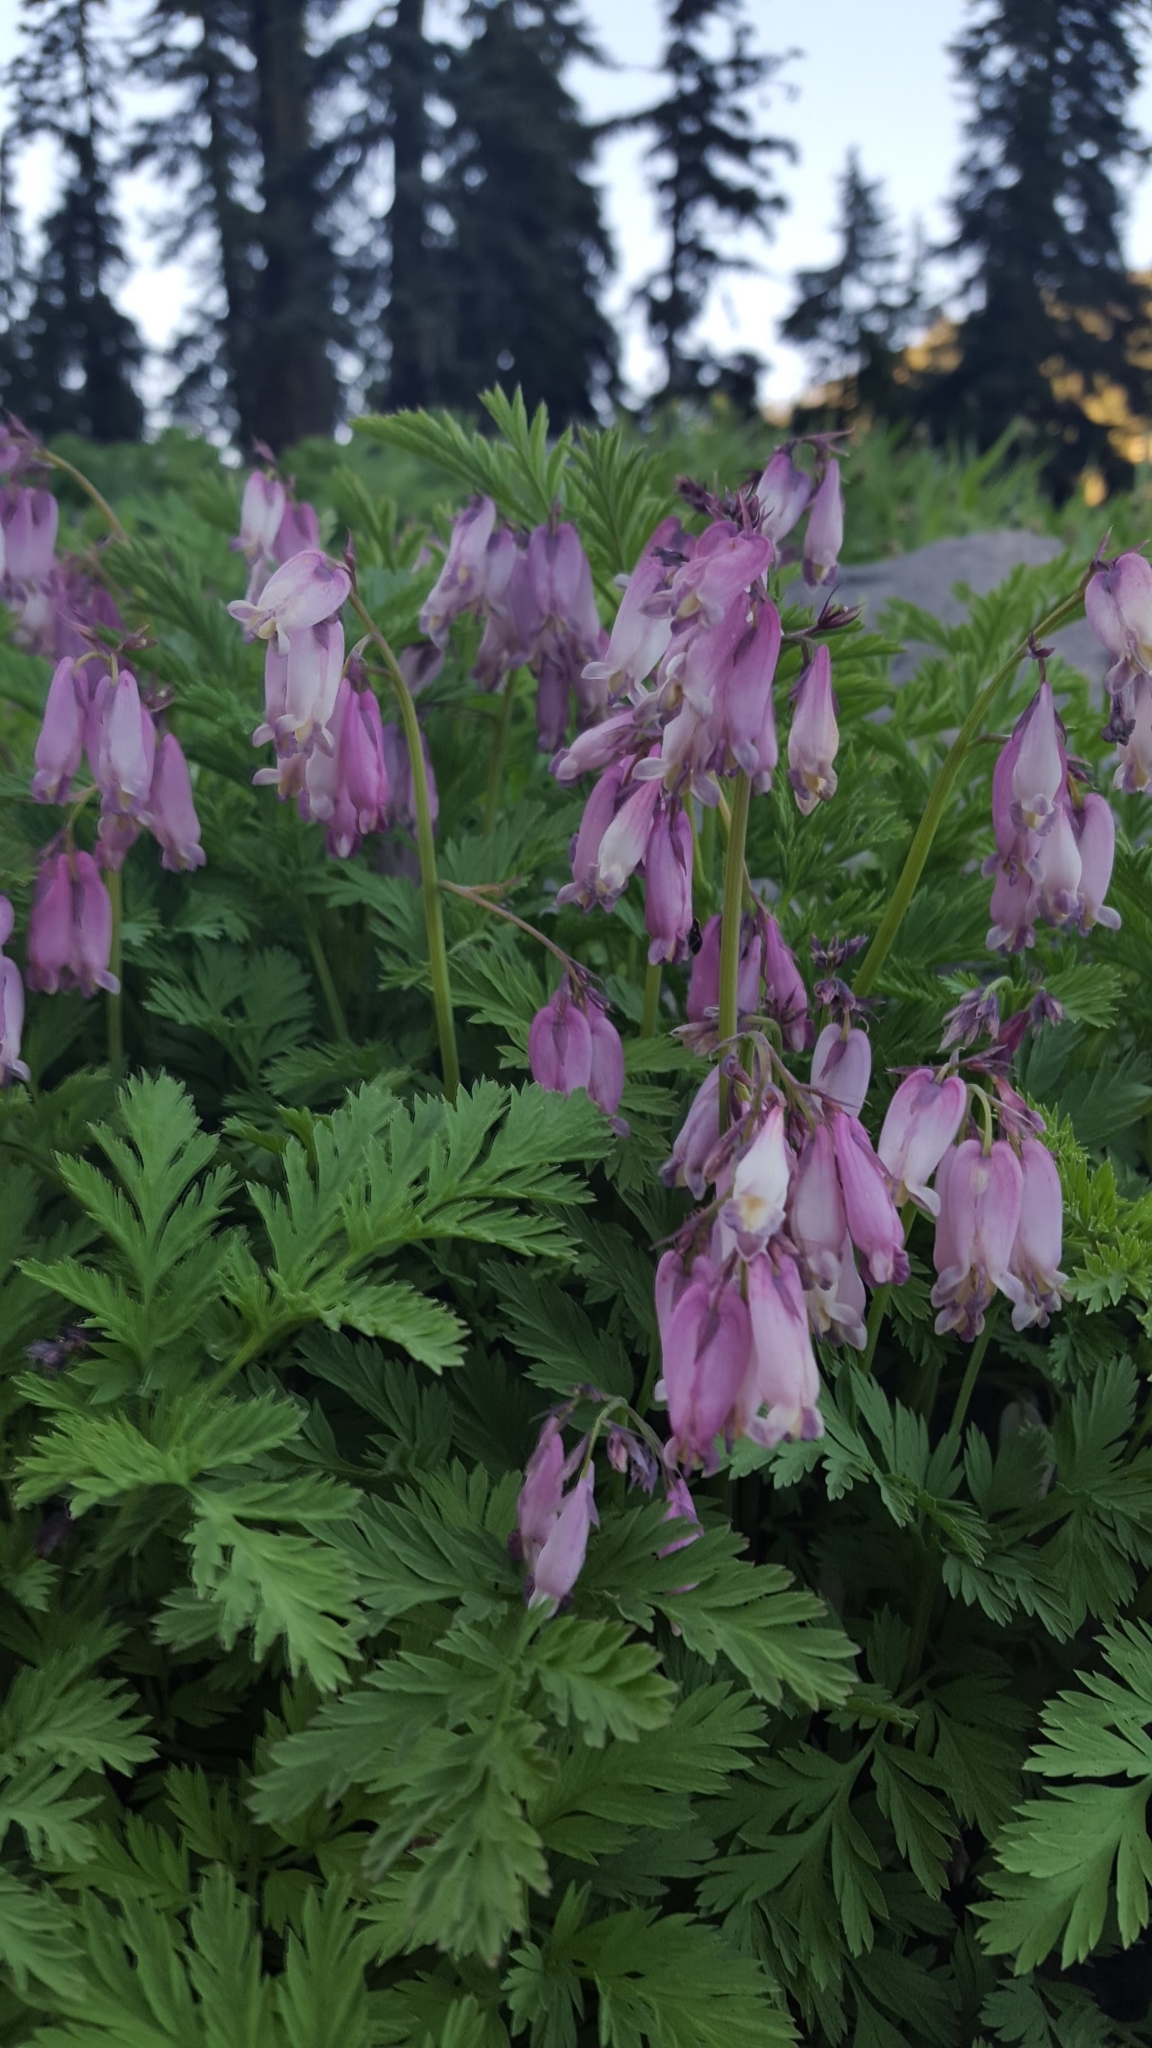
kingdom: Plantae
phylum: Tracheophyta
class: Magnoliopsida
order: Ranunculales
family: Papaveraceae
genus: Dicentra
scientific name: Dicentra formosa
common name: Bleeding-heart
